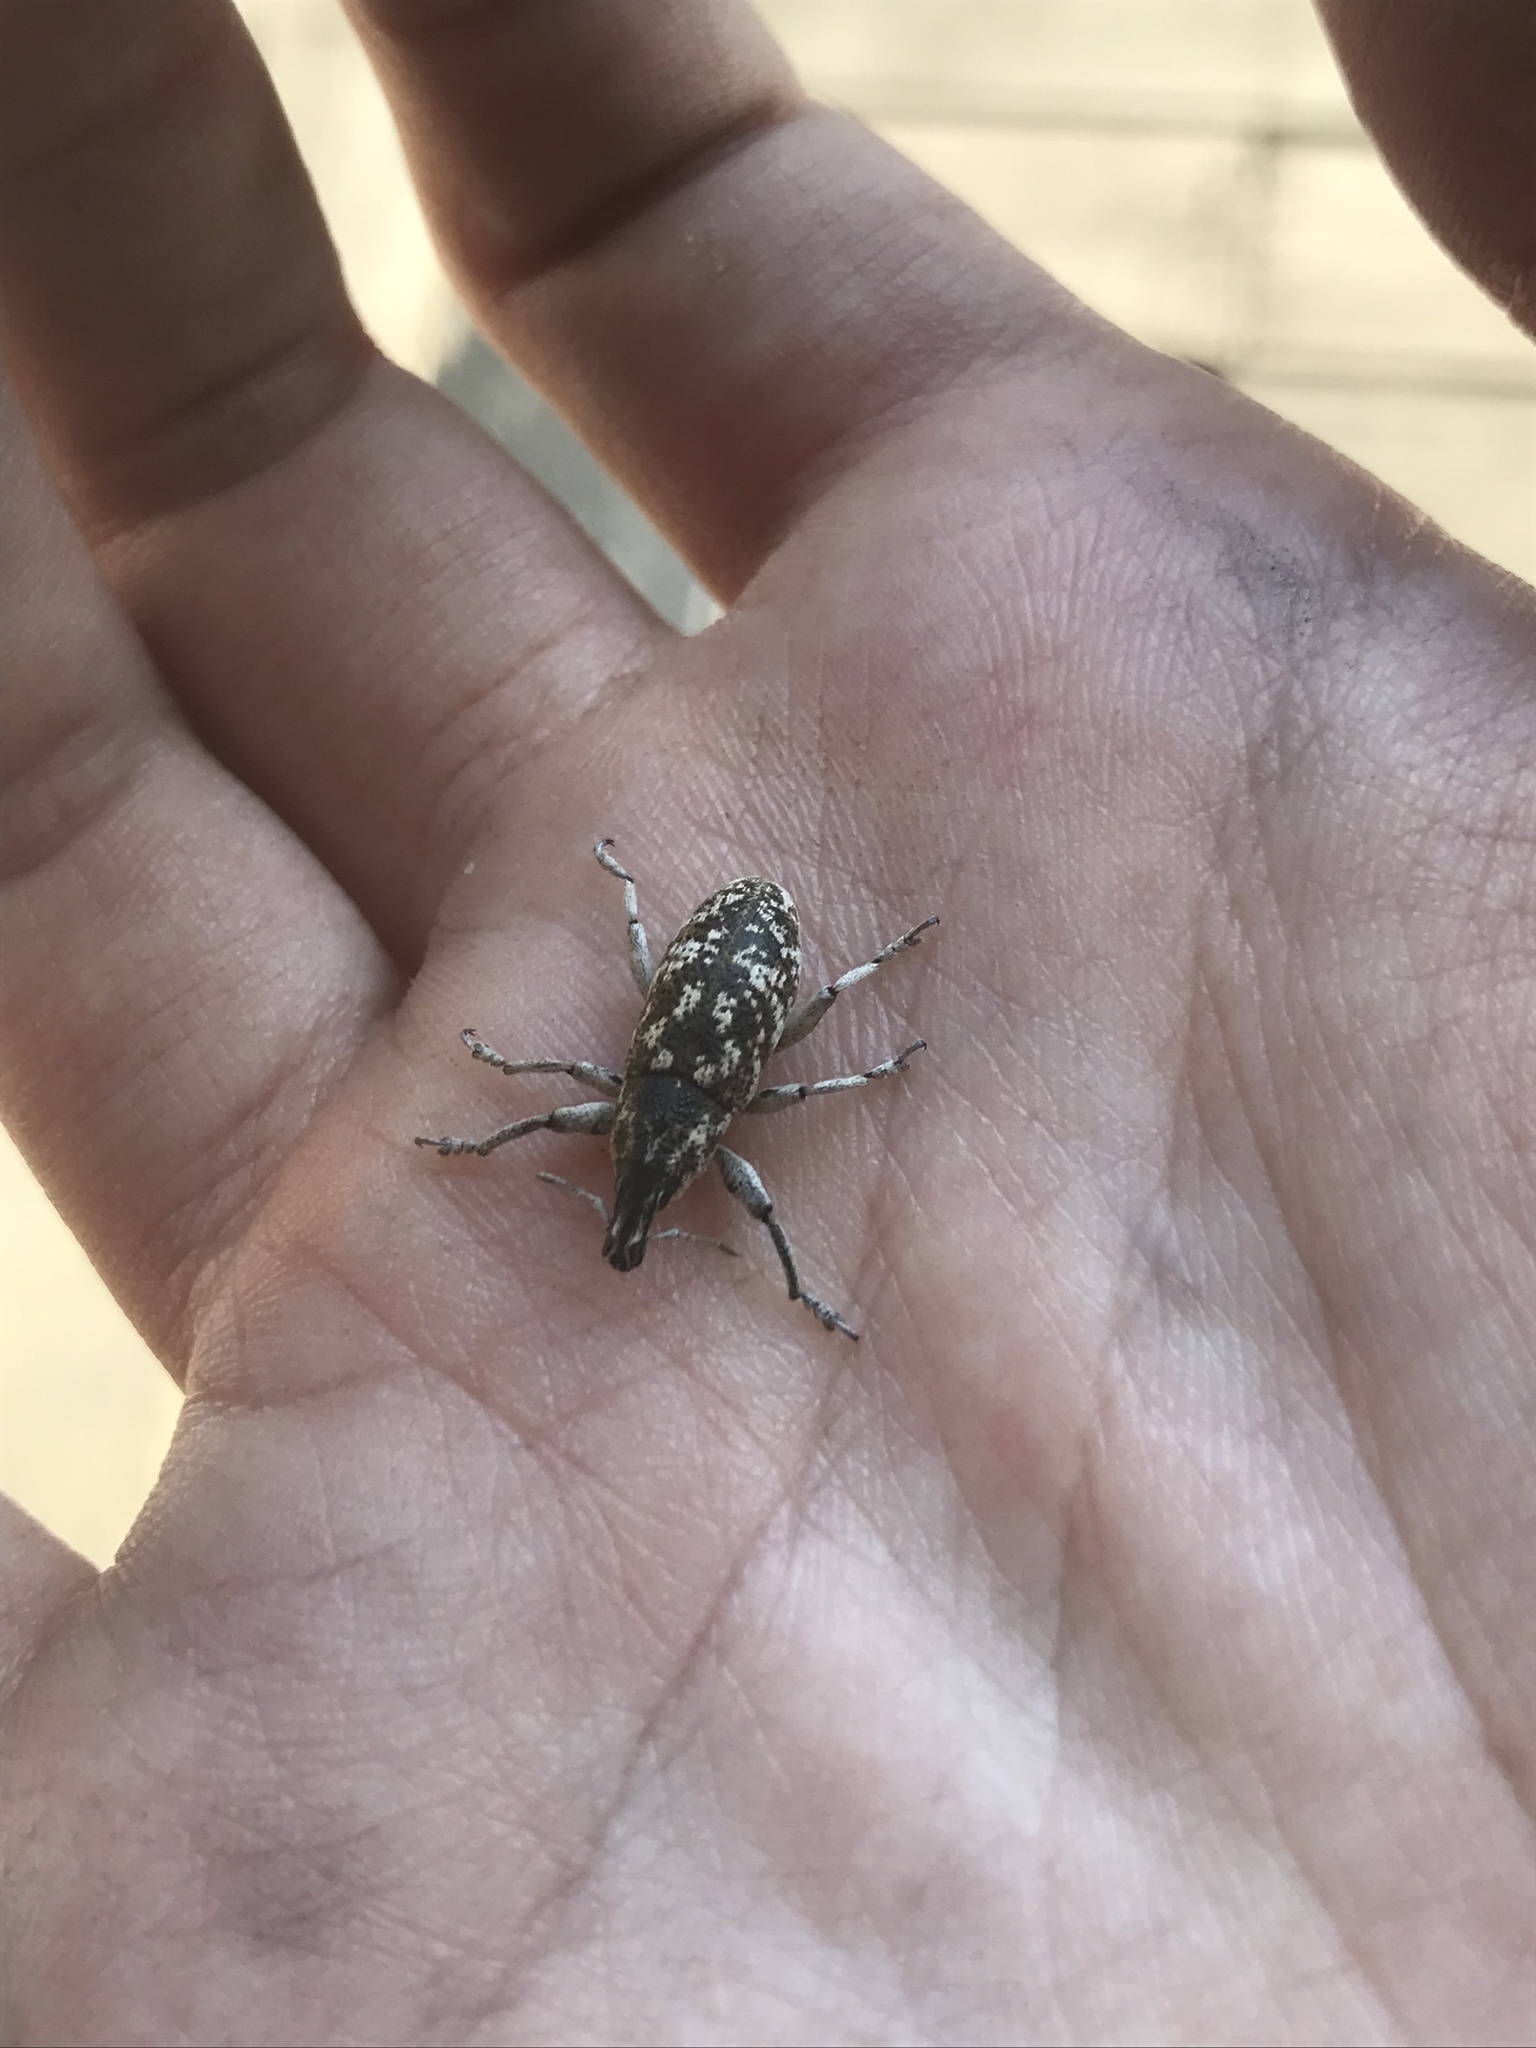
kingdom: Animalia
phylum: Arthropoda
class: Insecta
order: Coleoptera
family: Curculionidae
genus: Cleonus
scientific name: Cleonus achates
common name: Root weevil
